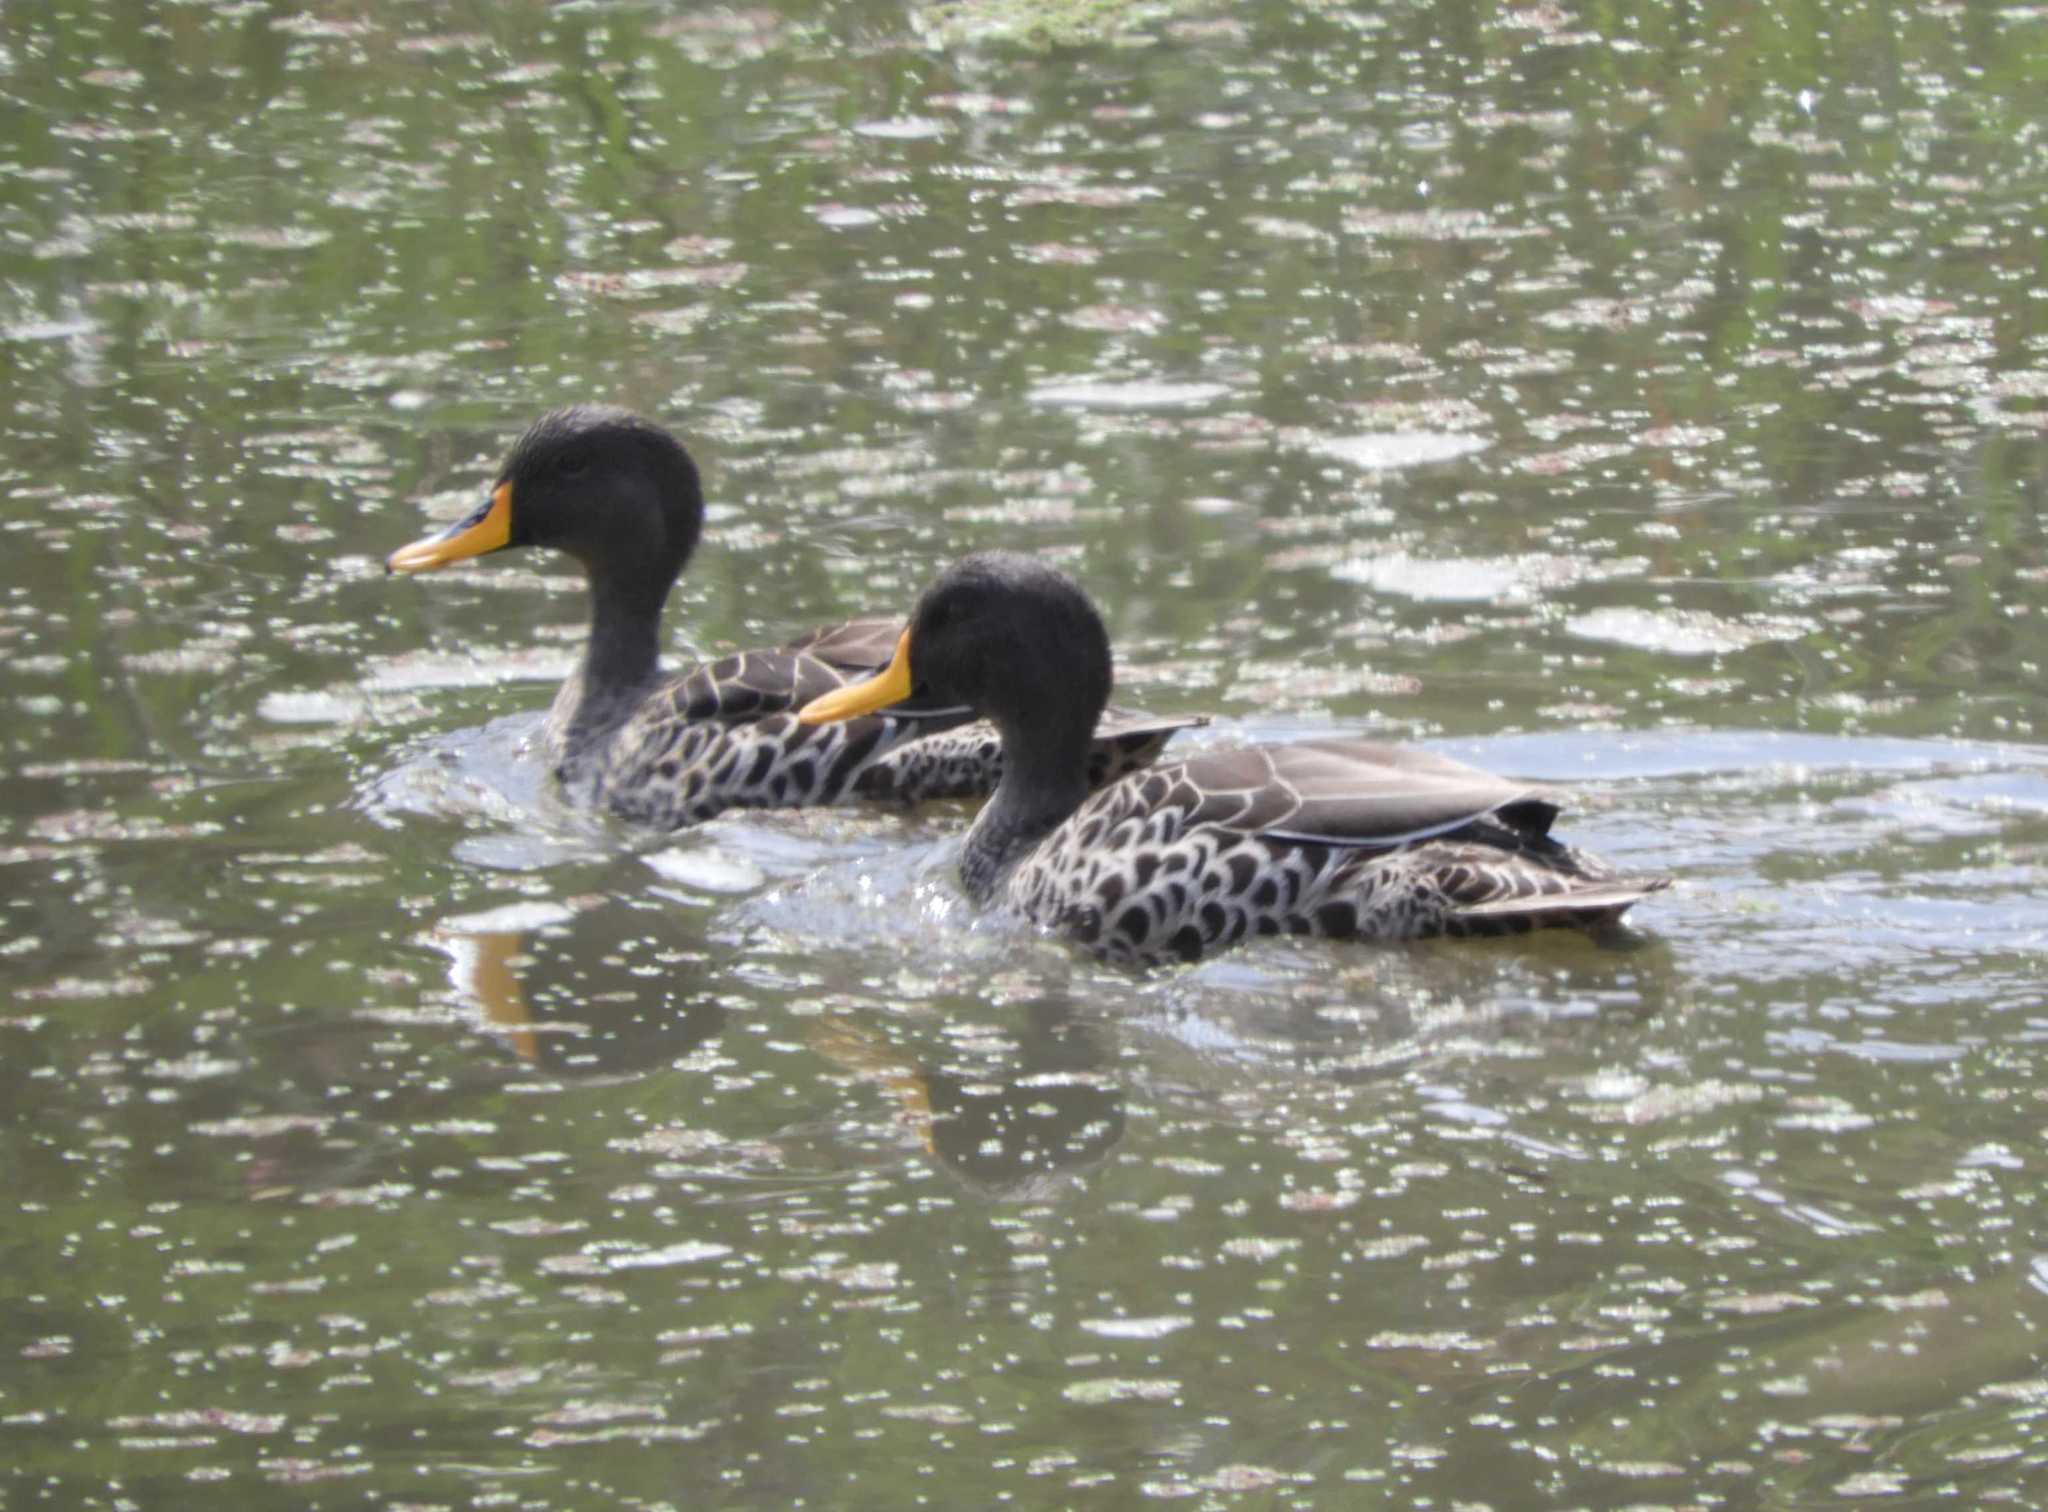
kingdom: Animalia
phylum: Chordata
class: Aves
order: Anseriformes
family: Anatidae
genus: Anas
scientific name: Anas undulata
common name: Yellow-billed duck
